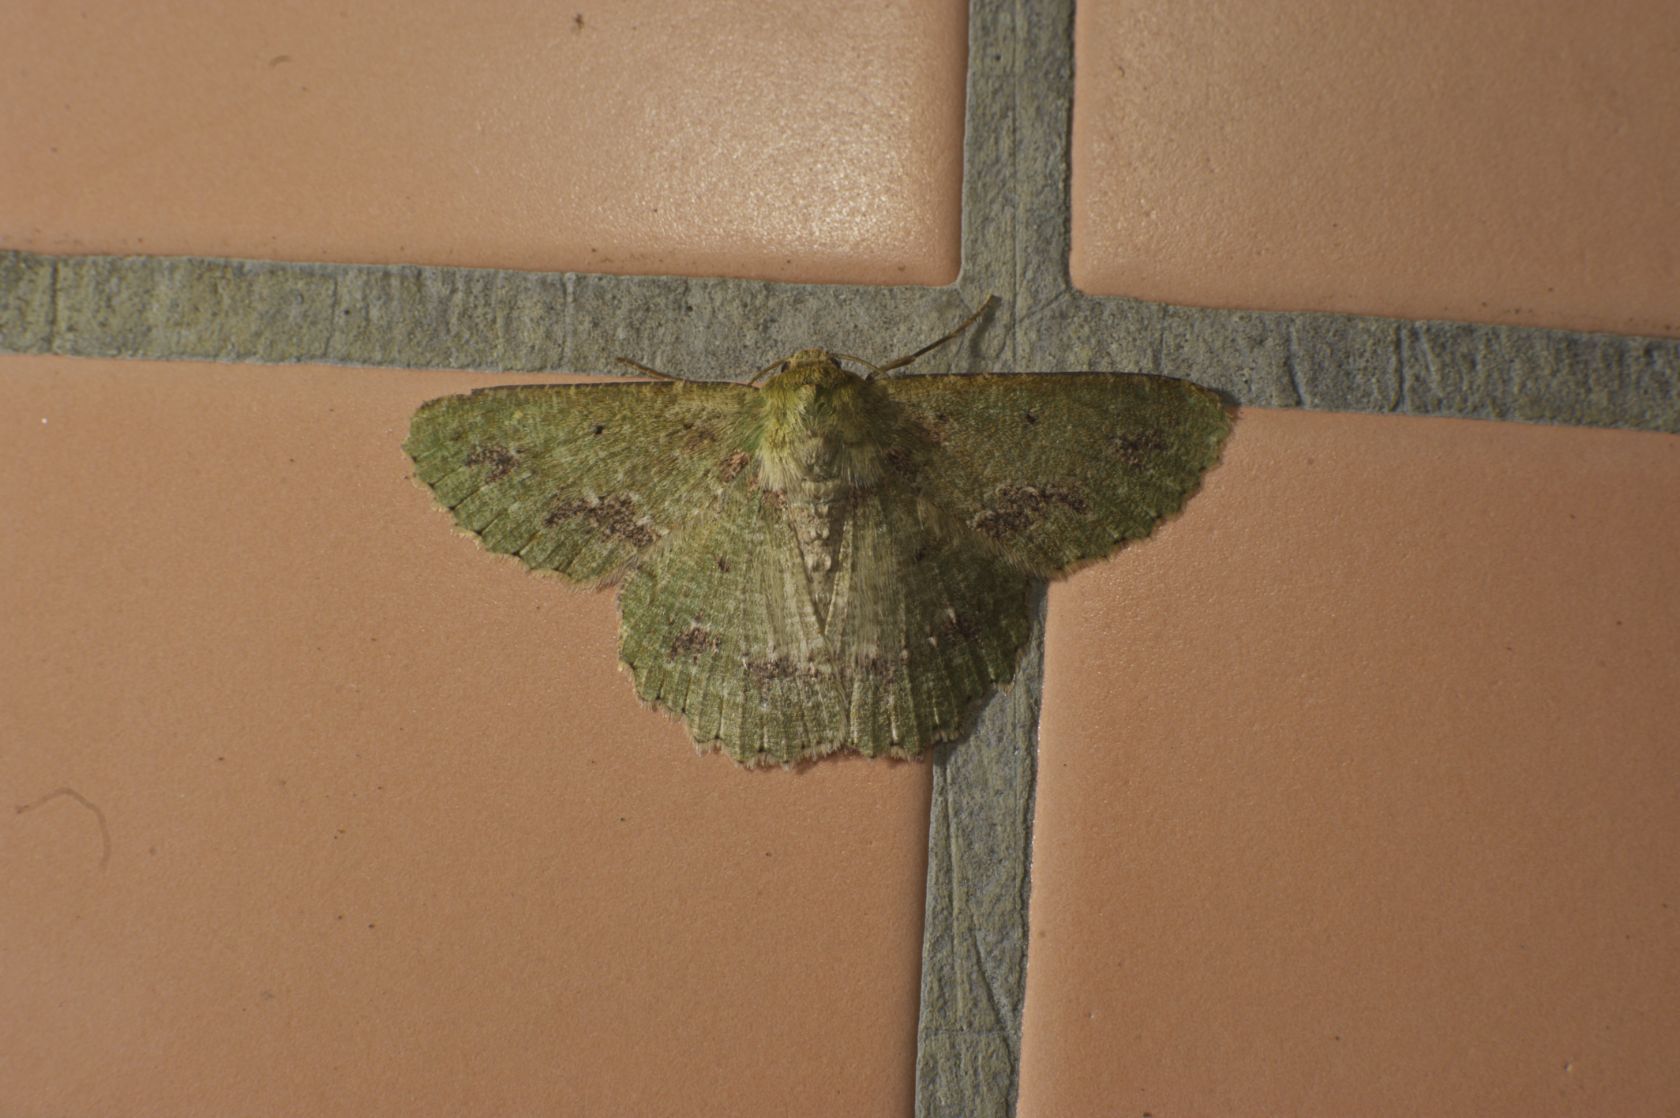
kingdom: Animalia
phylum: Arthropoda
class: Insecta
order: Lepidoptera
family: Geometridae
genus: Herochroma
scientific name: Herochroma cristata
